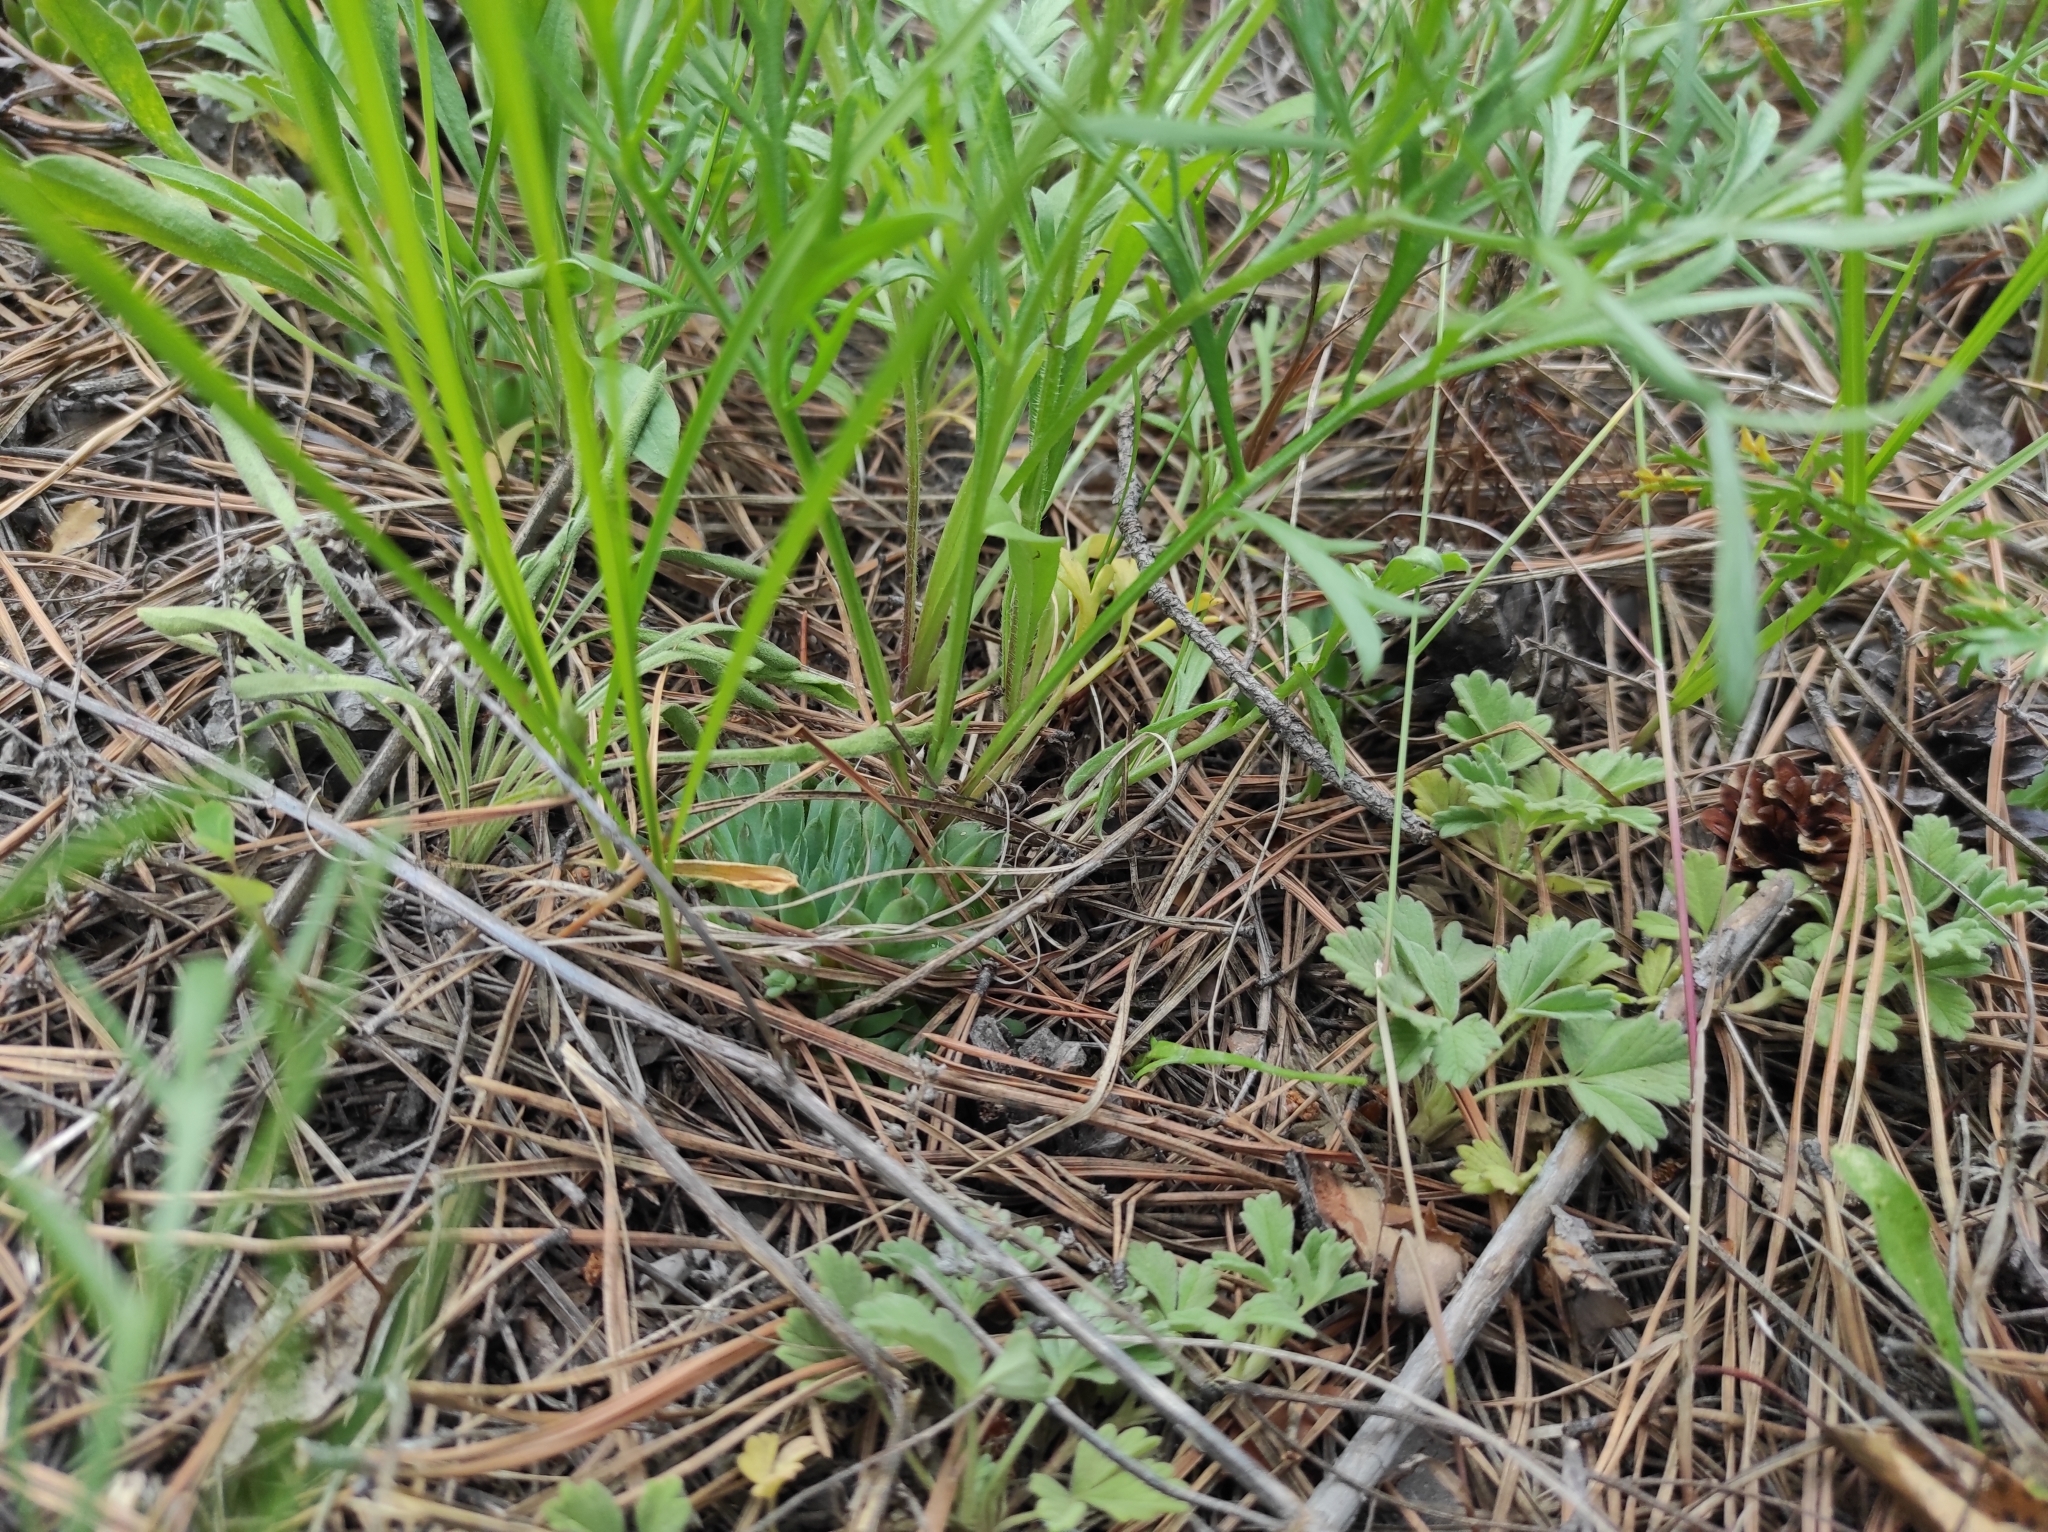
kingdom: Plantae
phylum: Tracheophyta
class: Magnoliopsida
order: Saxifragales
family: Crassulaceae
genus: Orostachys
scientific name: Orostachys spinosa
